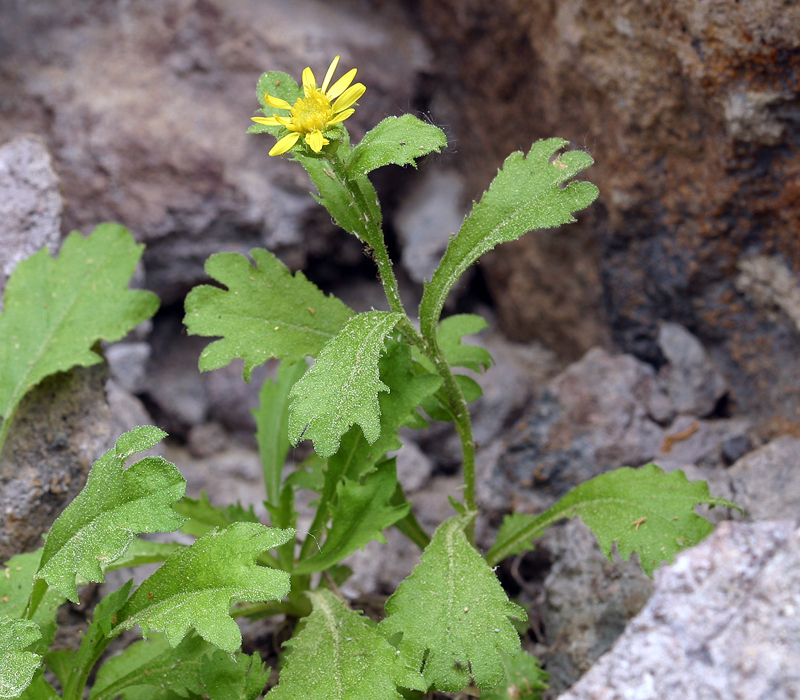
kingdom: Plantae
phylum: Tracheophyta
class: Magnoliopsida
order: Asterales
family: Asteraceae
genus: Toiyabea
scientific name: Toiyabea eximia
